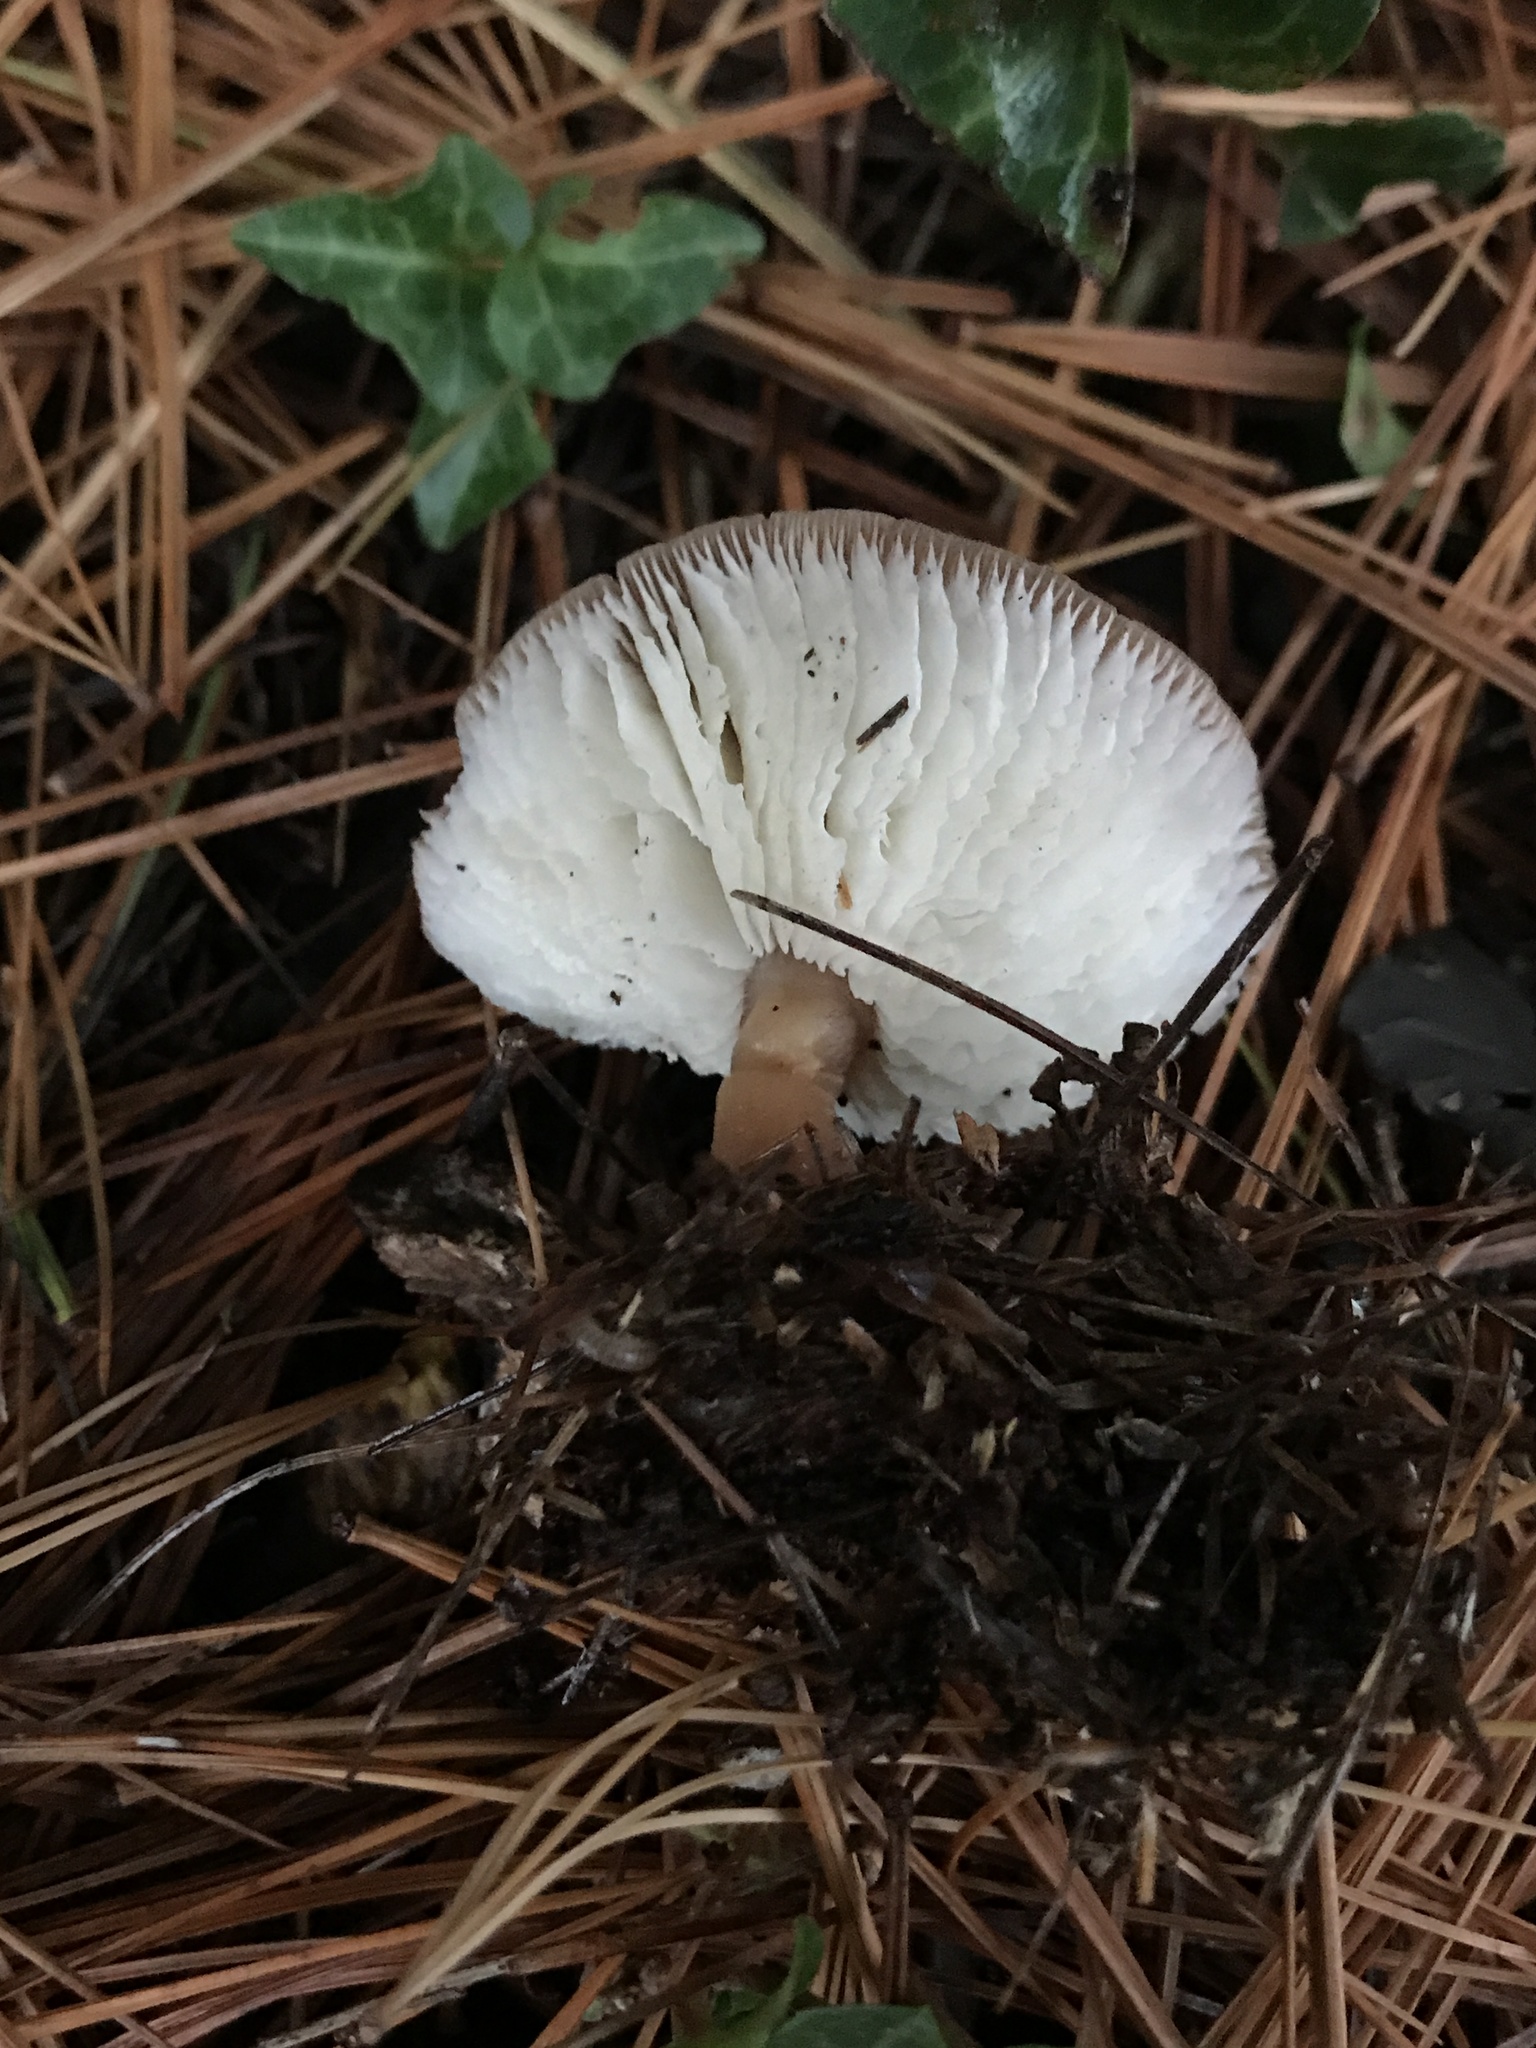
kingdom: Fungi
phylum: Basidiomycota
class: Agaricomycetes
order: Agaricales
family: Omphalotaceae
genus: Rhodocollybia
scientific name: Rhodocollybia butyracea
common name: Butter cap
